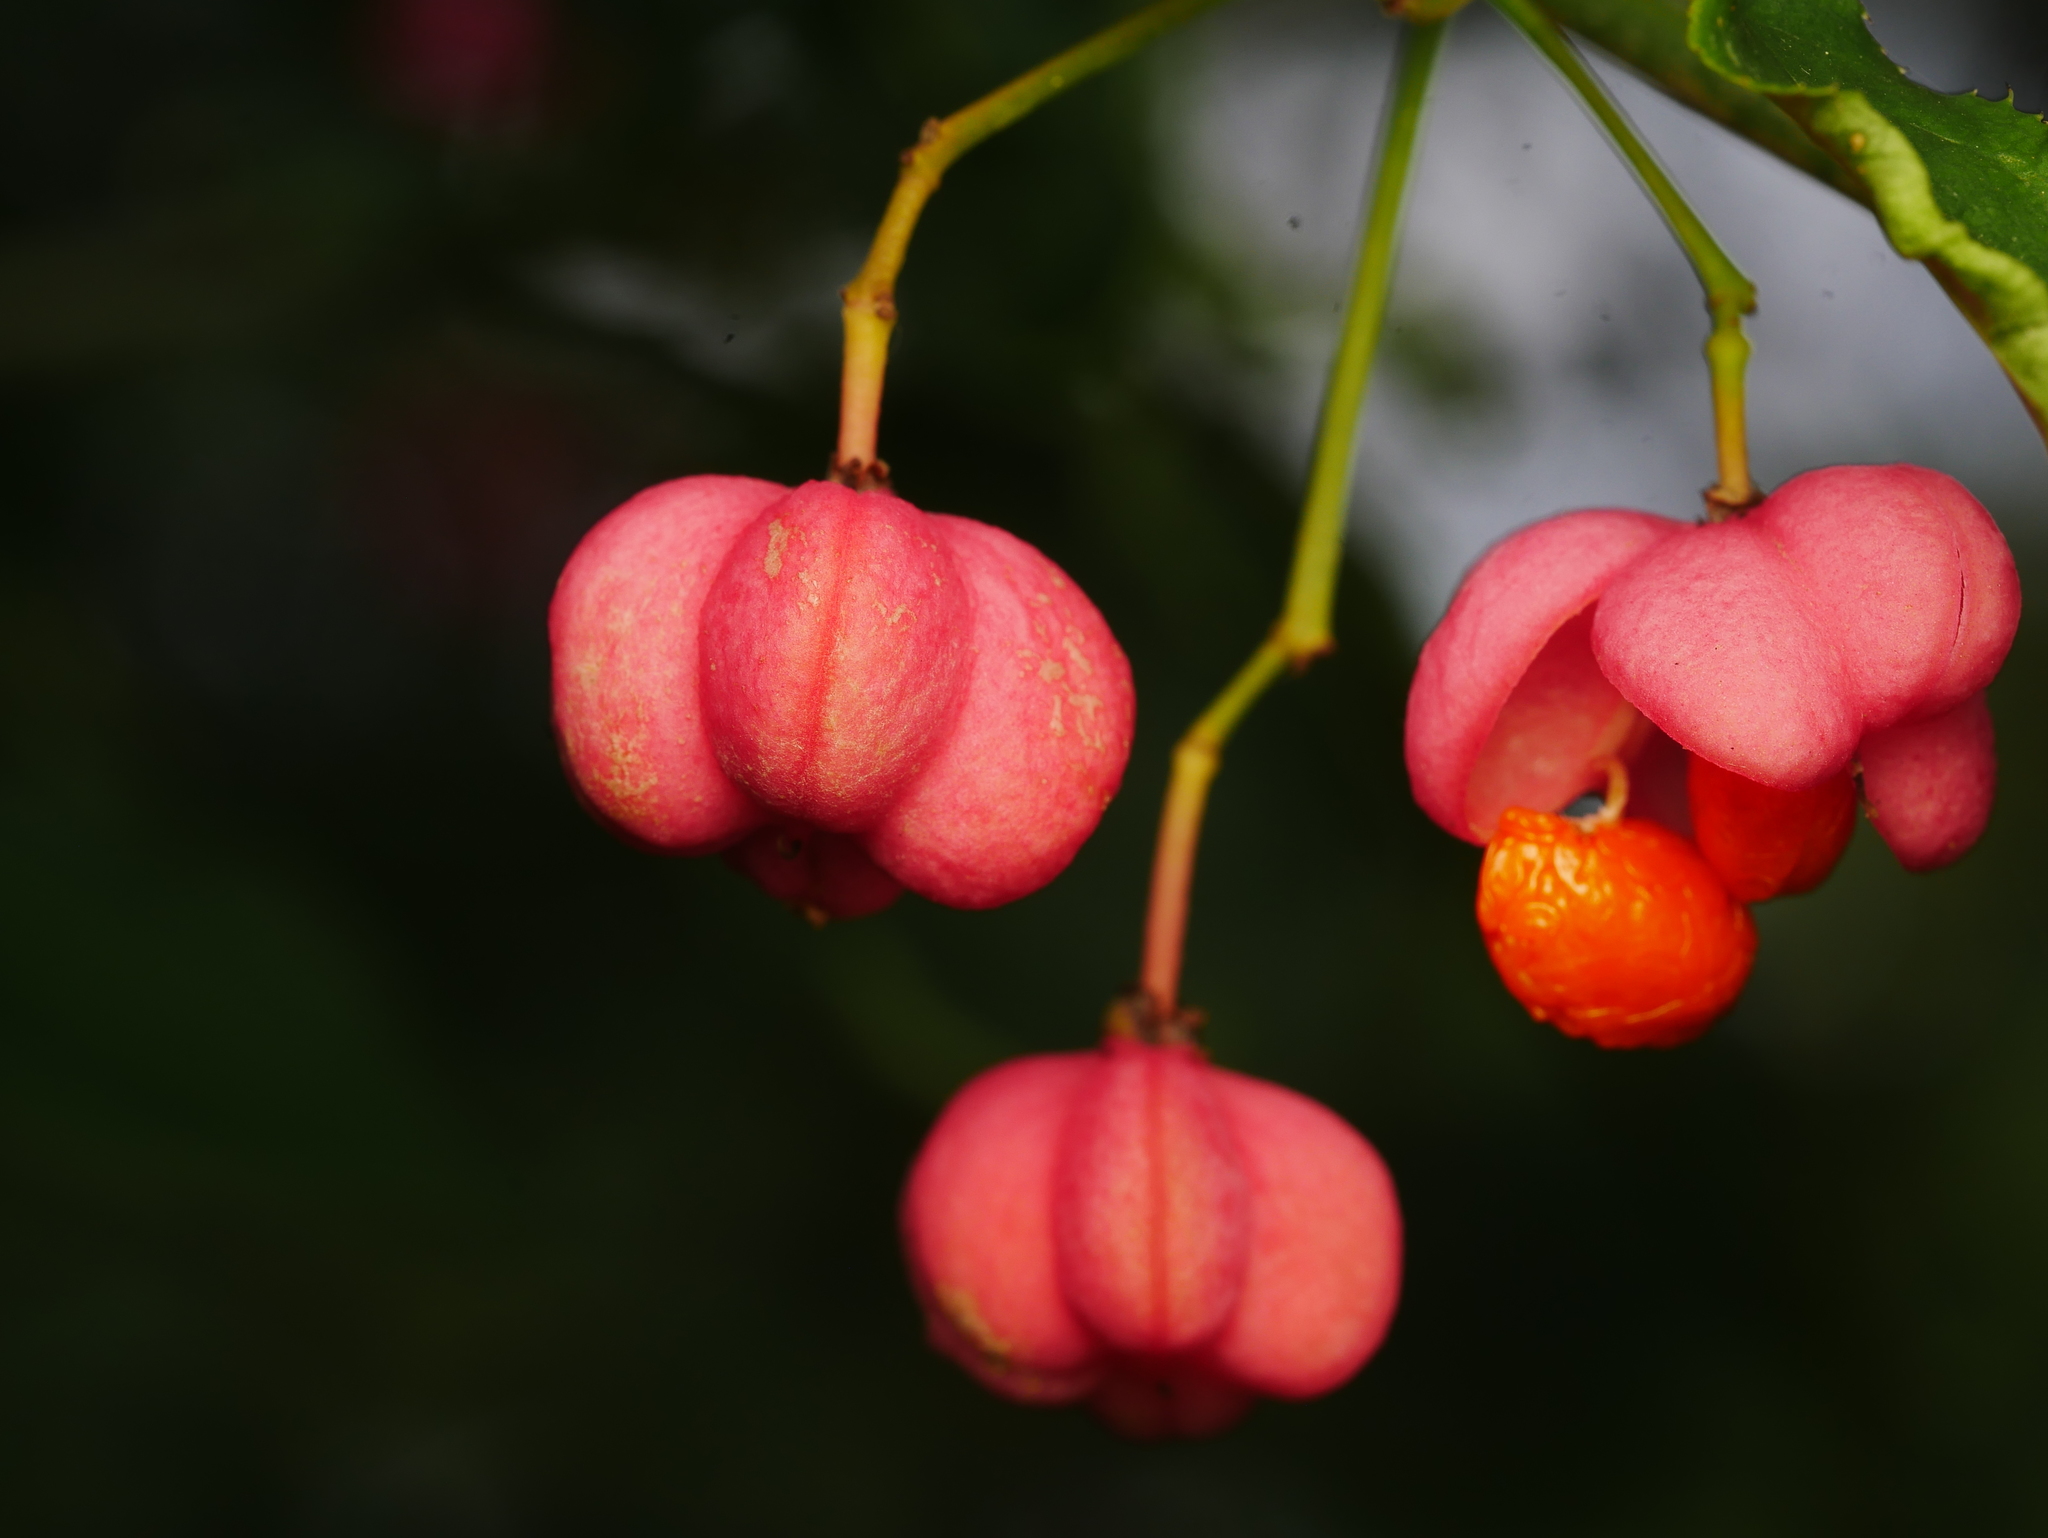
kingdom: Plantae
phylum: Tracheophyta
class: Magnoliopsida
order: Celastrales
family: Celastraceae
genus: Euonymus
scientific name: Euonymus europaeus
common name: Spindle
